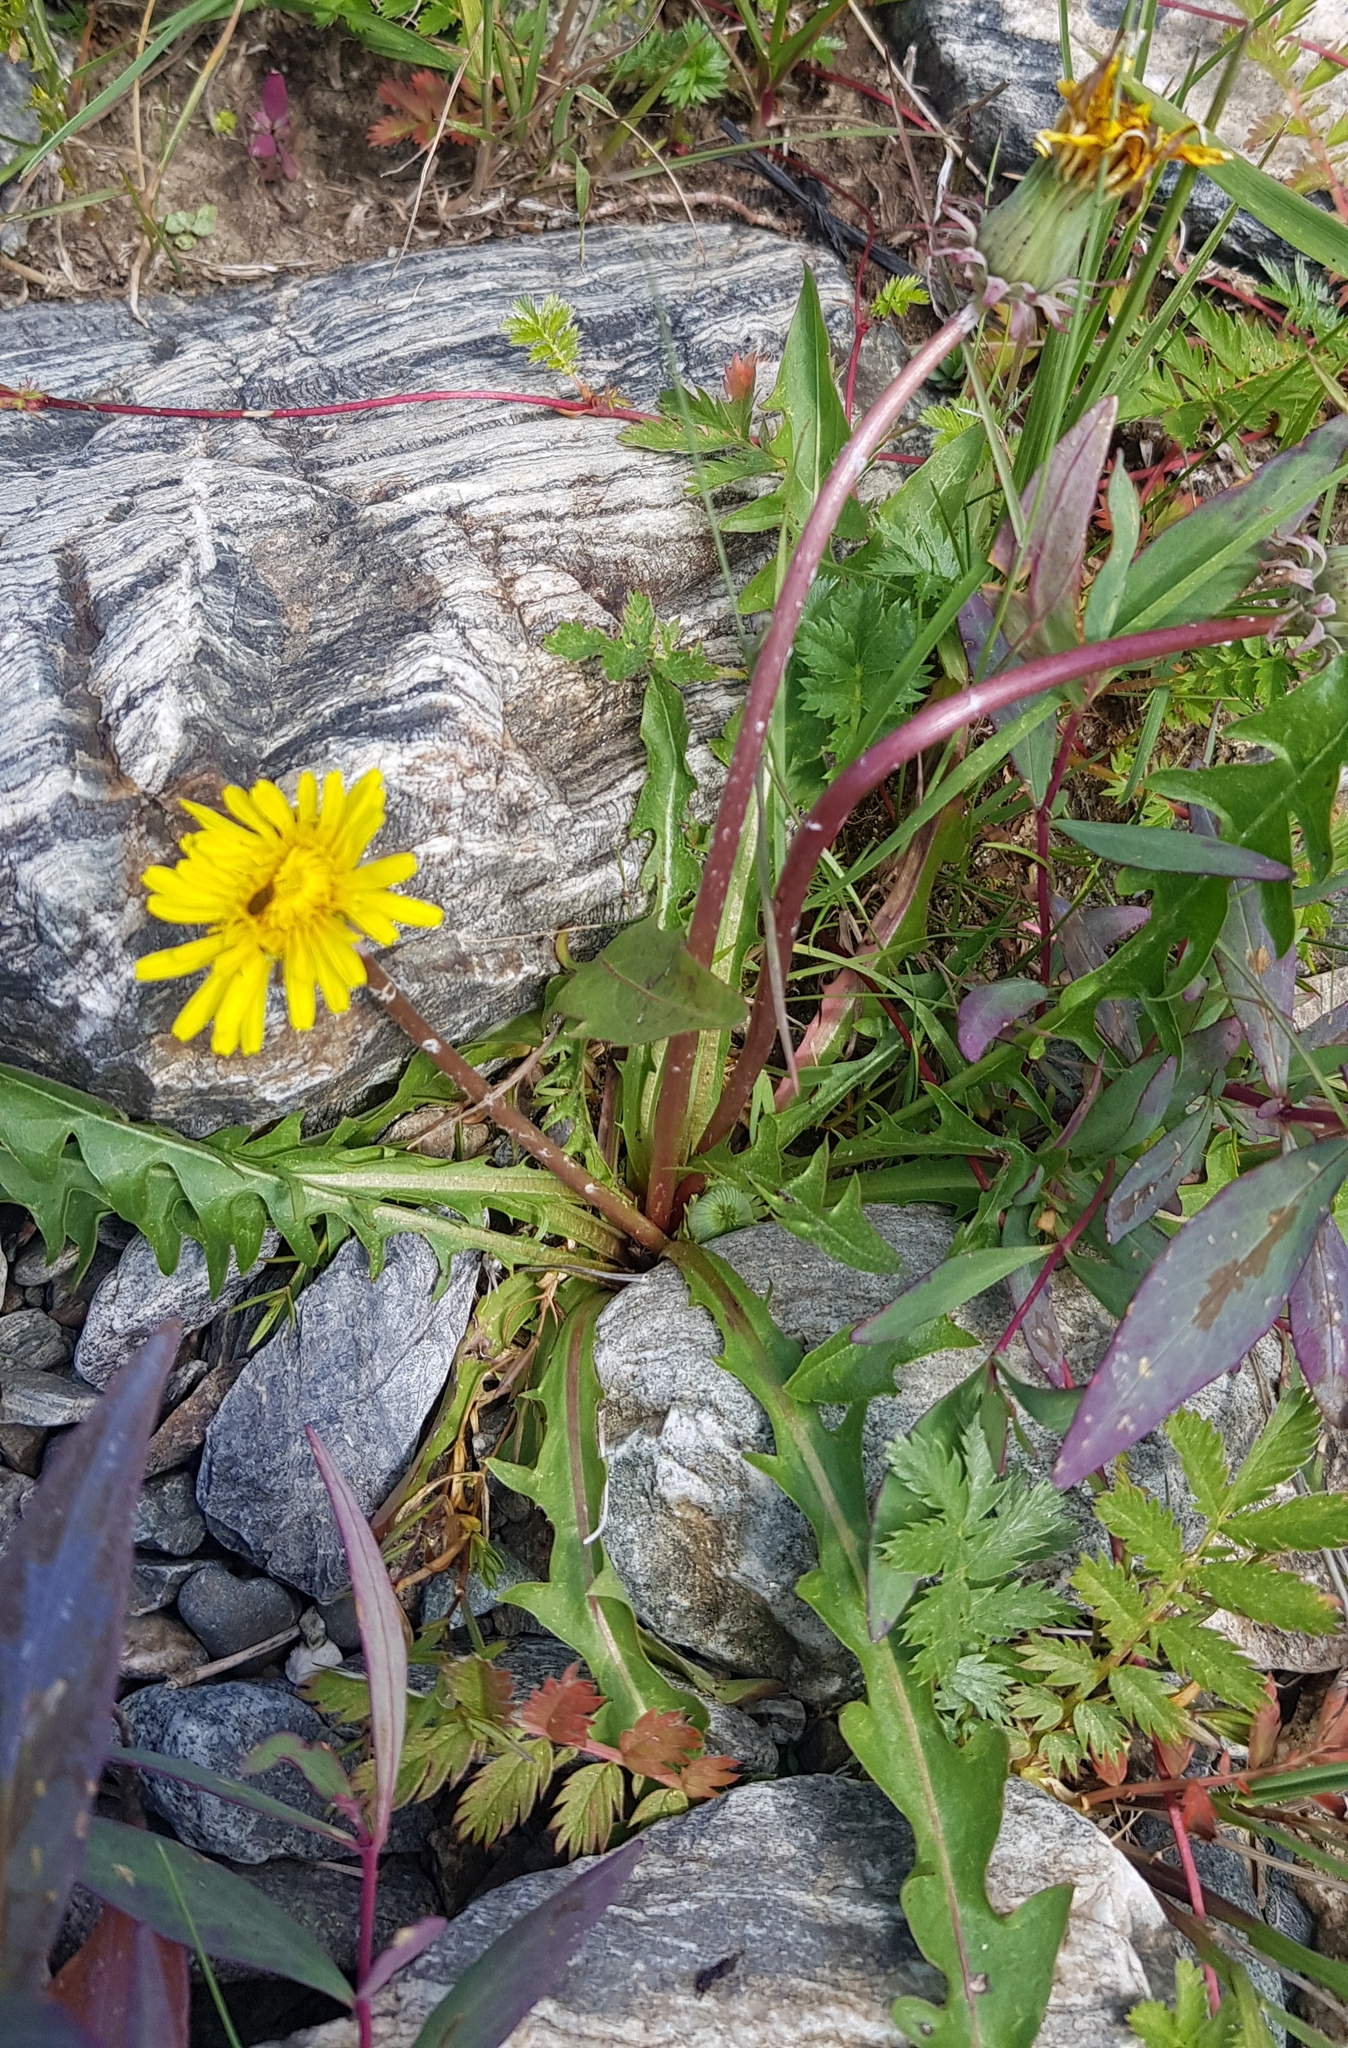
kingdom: Plantae
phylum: Tracheophyta
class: Magnoliopsida
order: Asterales
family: Asteraceae
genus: Taraxacum
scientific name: Taraxacum ceratophorum
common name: Horn-bearing dandelion
